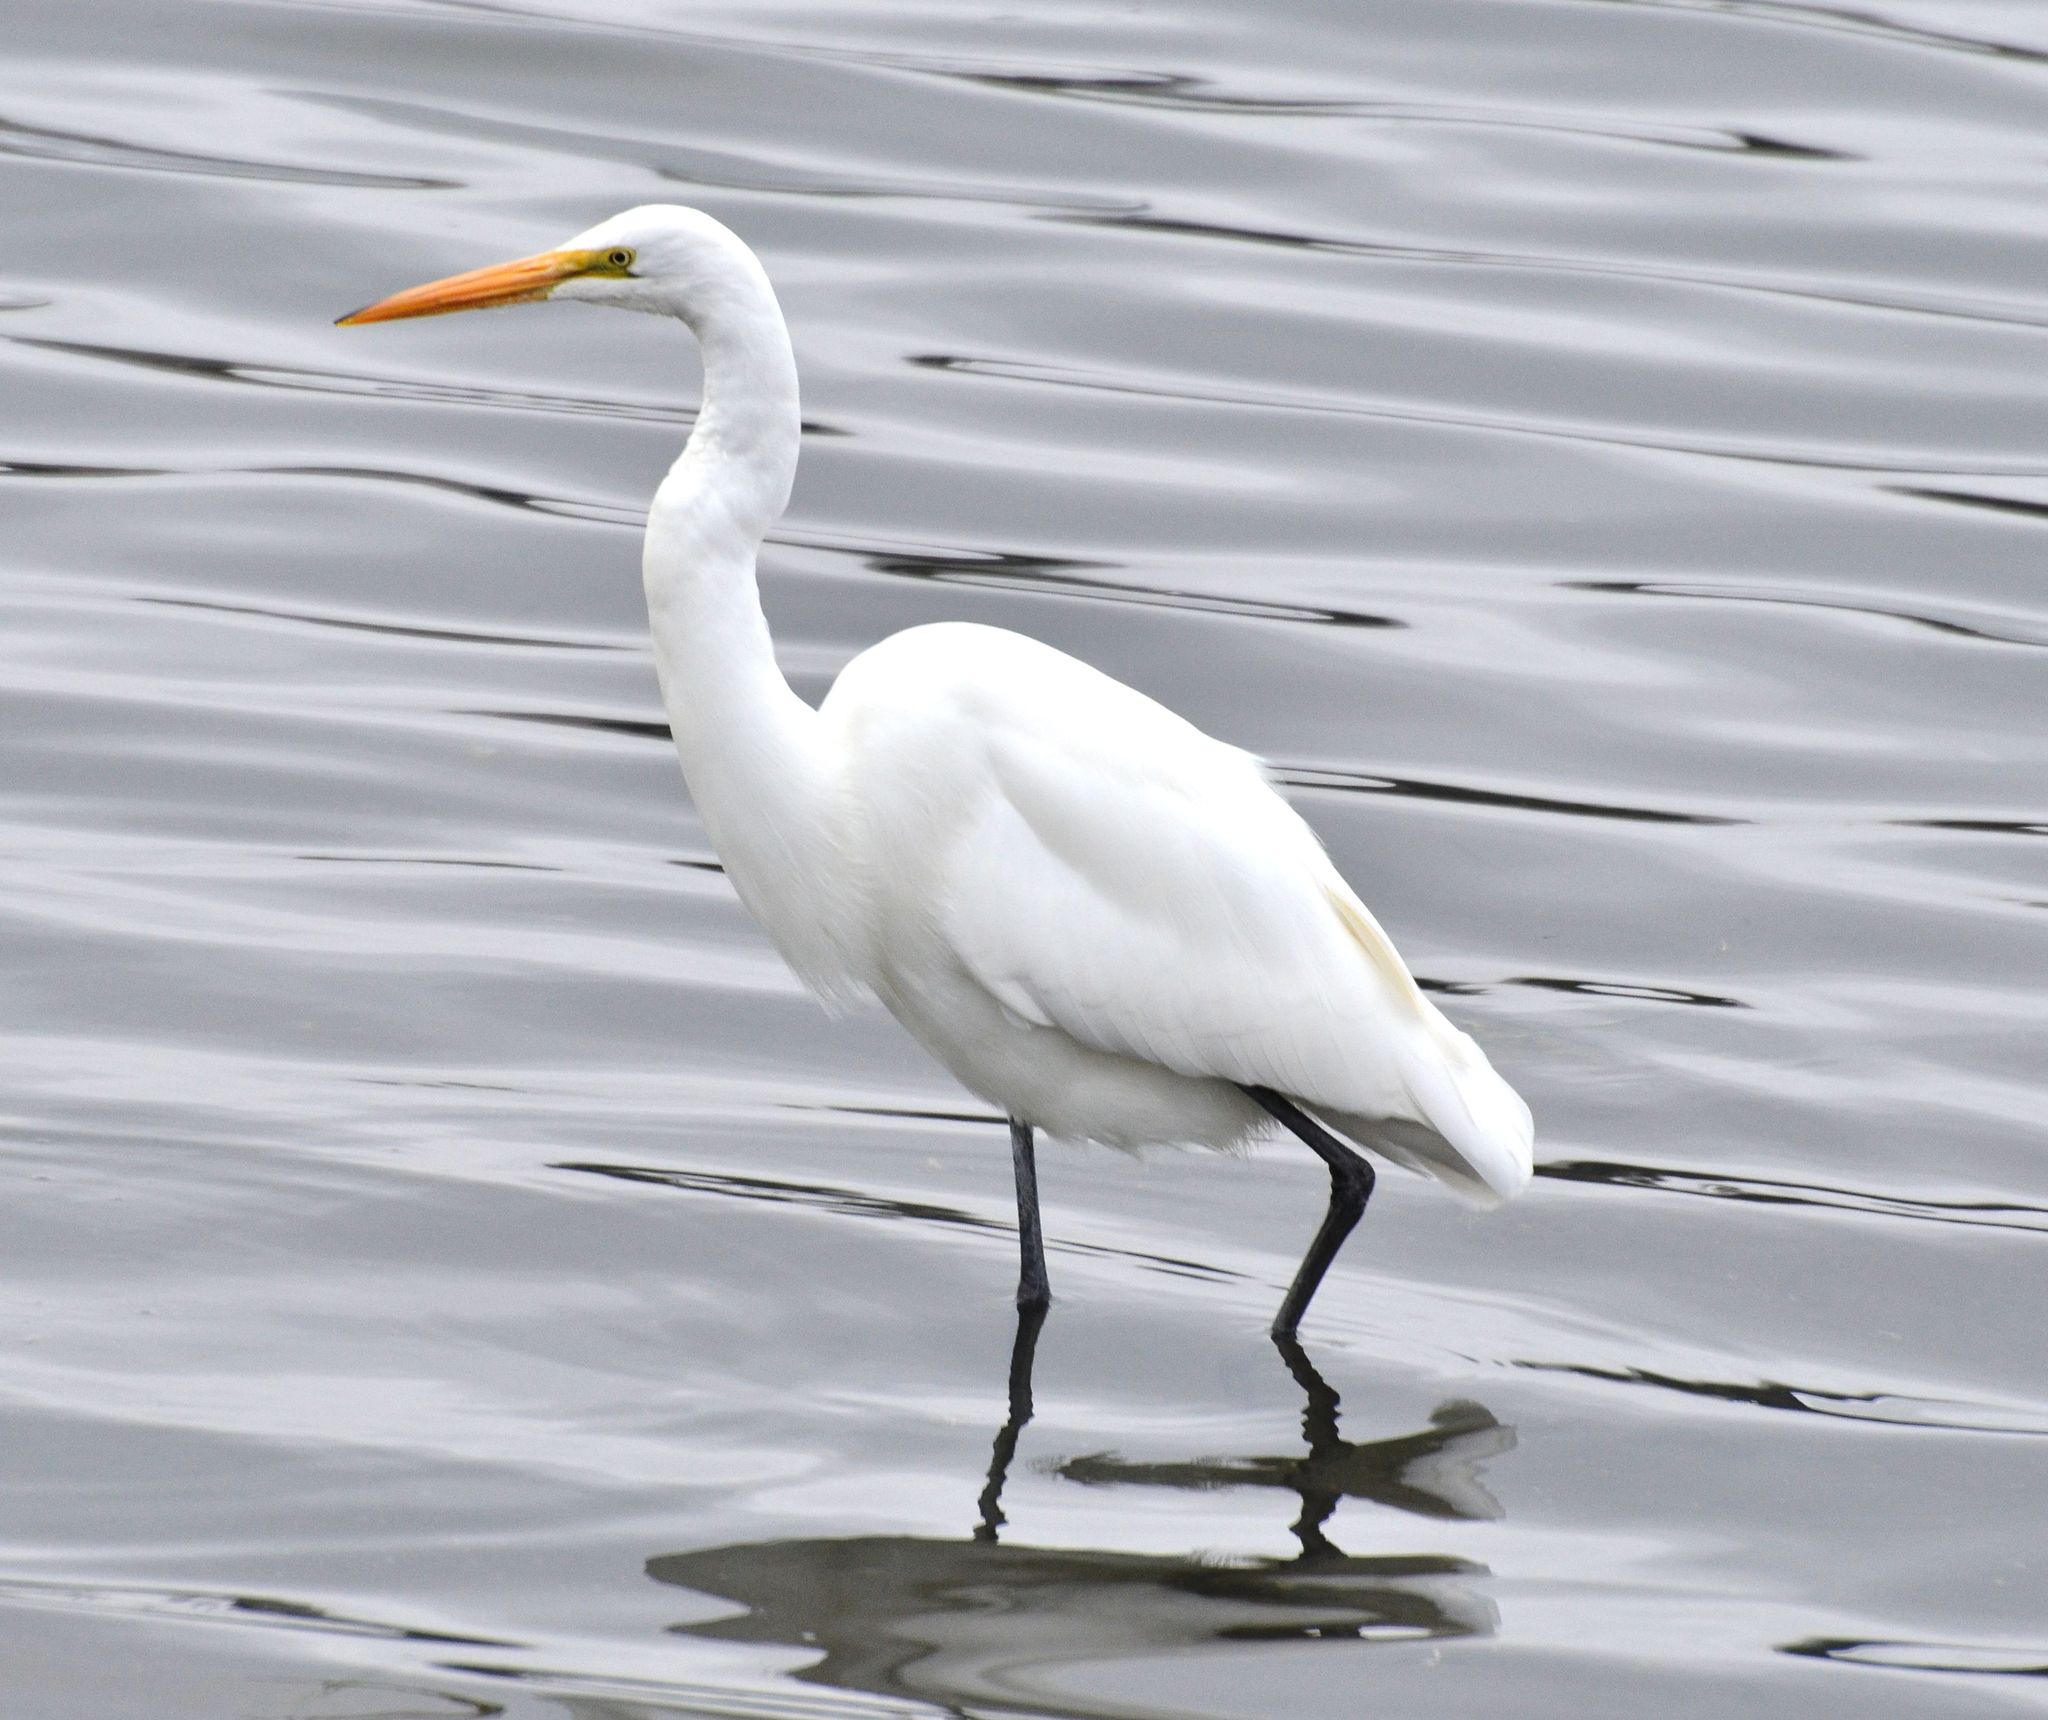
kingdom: Animalia
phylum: Chordata
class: Aves
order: Pelecaniformes
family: Ardeidae
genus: Ardea
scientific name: Ardea alba
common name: Great egret
